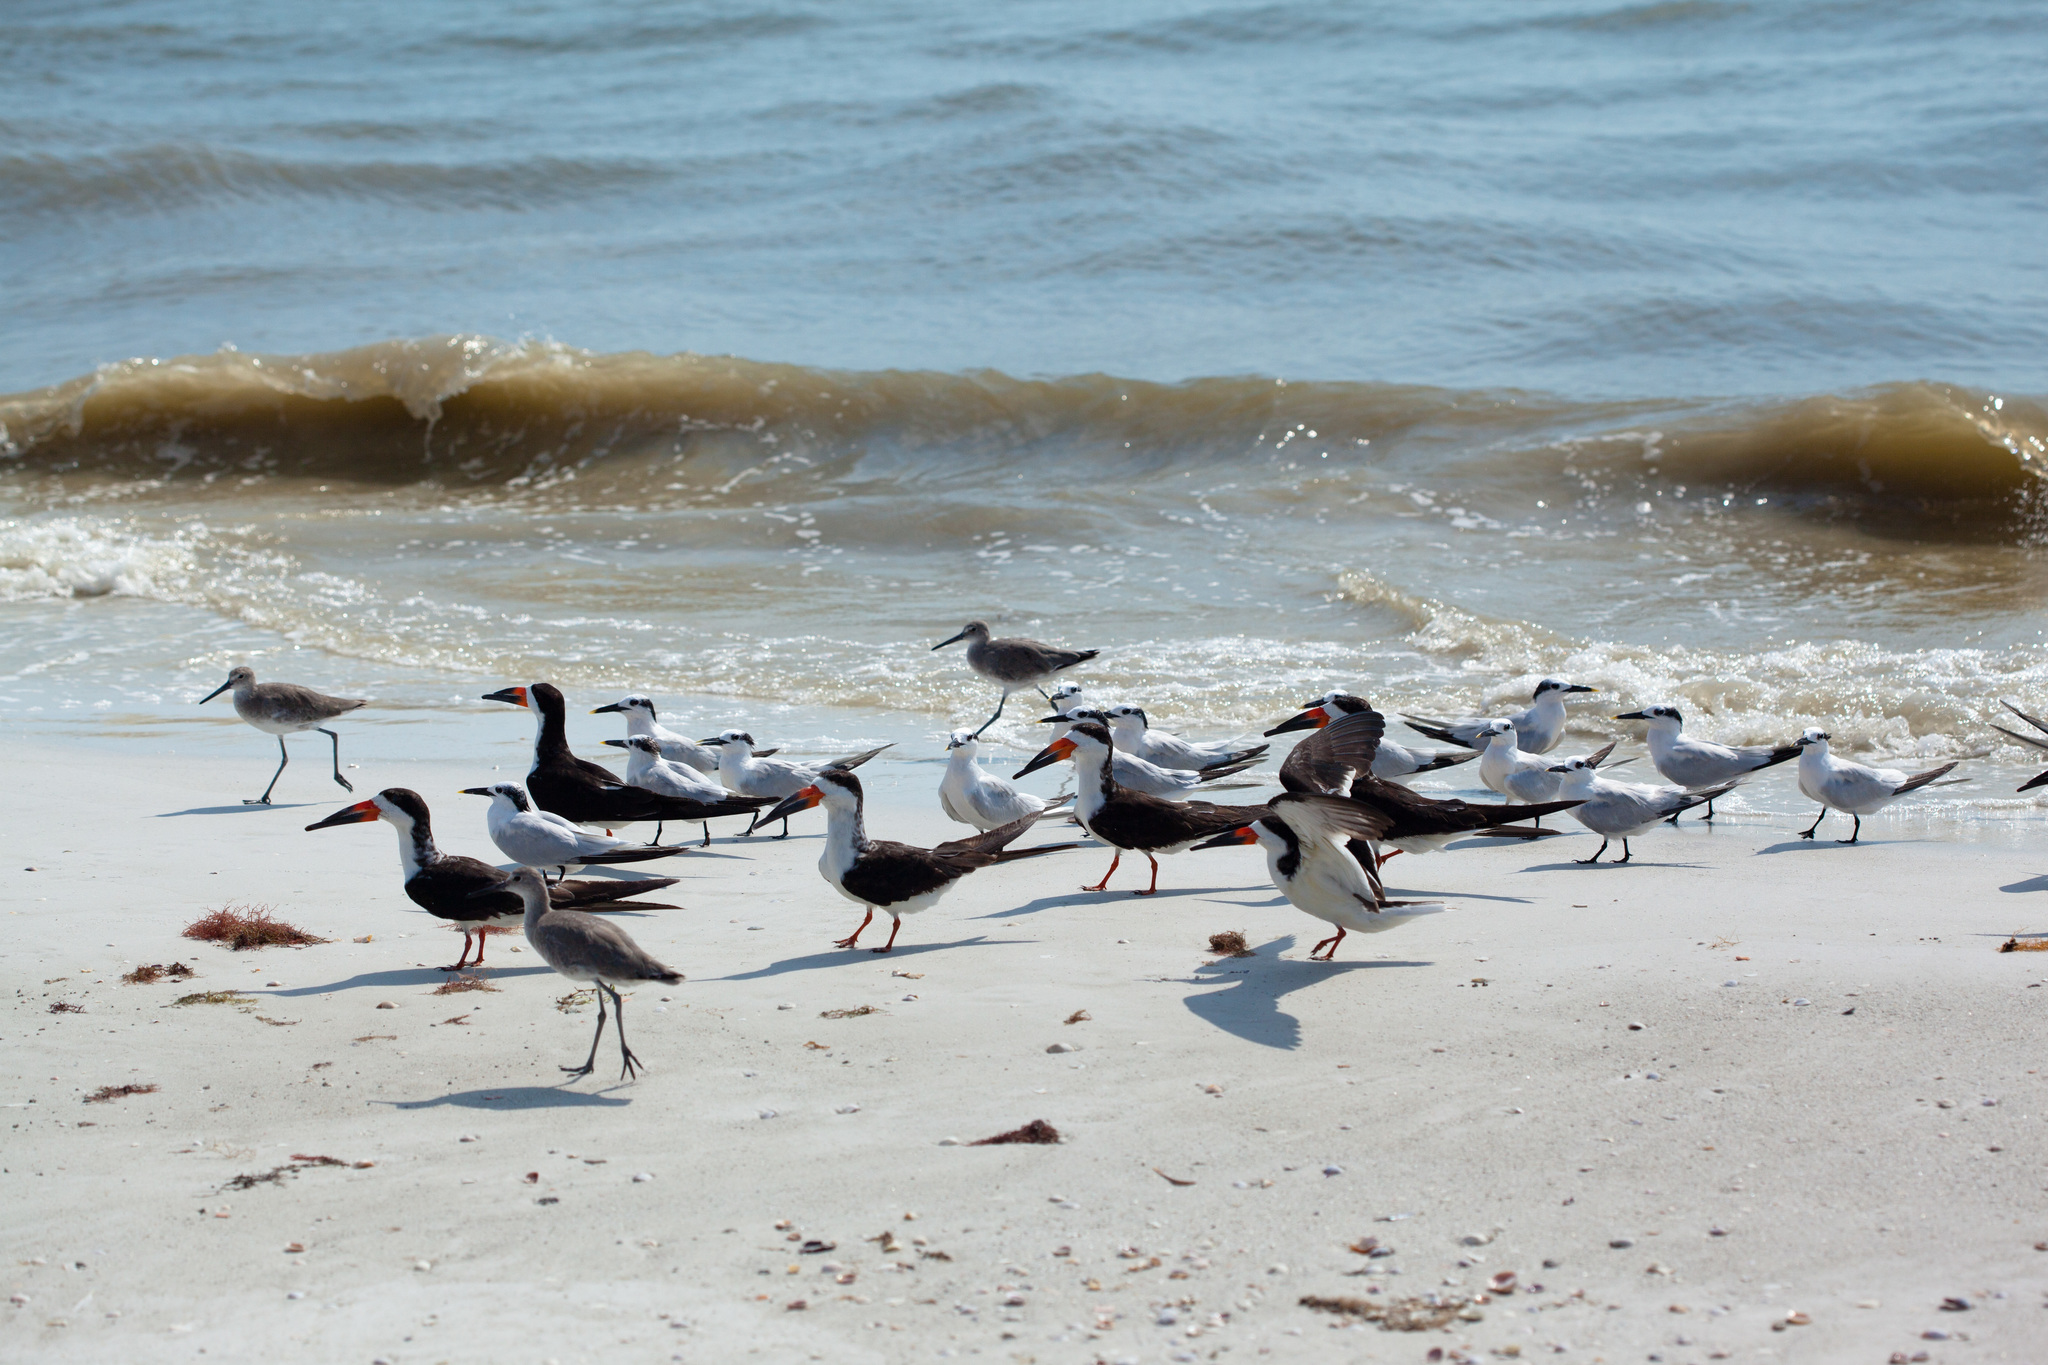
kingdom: Animalia
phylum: Chordata
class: Aves
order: Charadriiformes
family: Laridae
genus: Rynchops
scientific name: Rynchops niger
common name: Black skimmer
